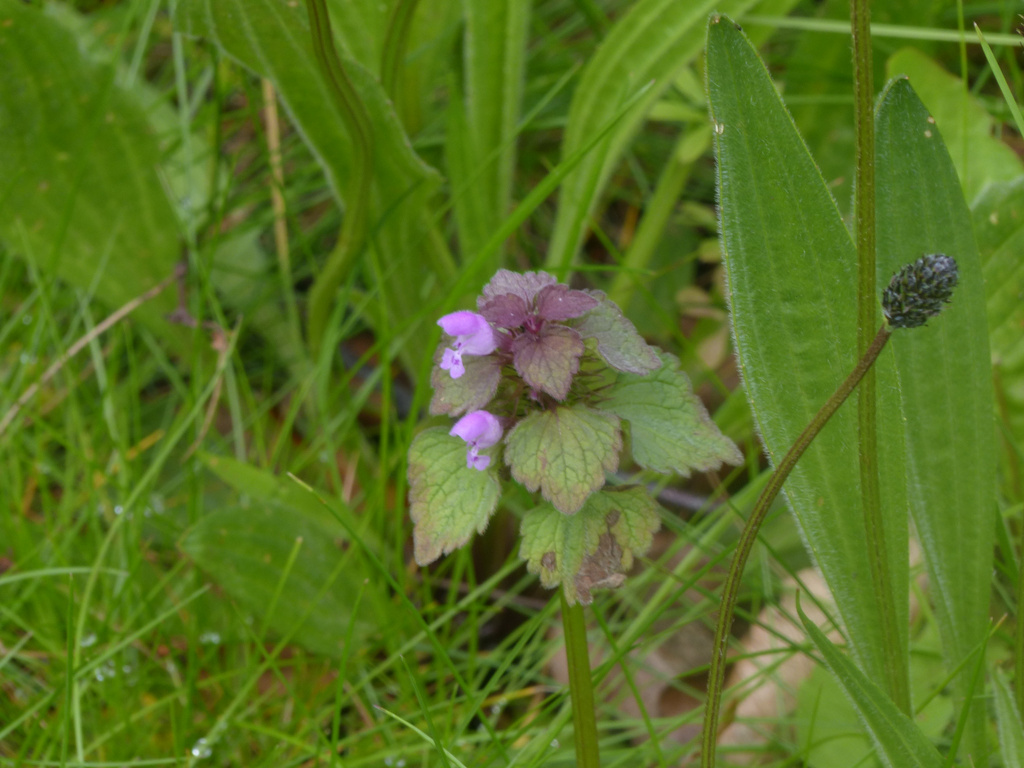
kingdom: Plantae
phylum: Tracheophyta
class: Magnoliopsida
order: Lamiales
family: Lamiaceae
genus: Lamium
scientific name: Lamium purpureum
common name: Red dead-nettle
